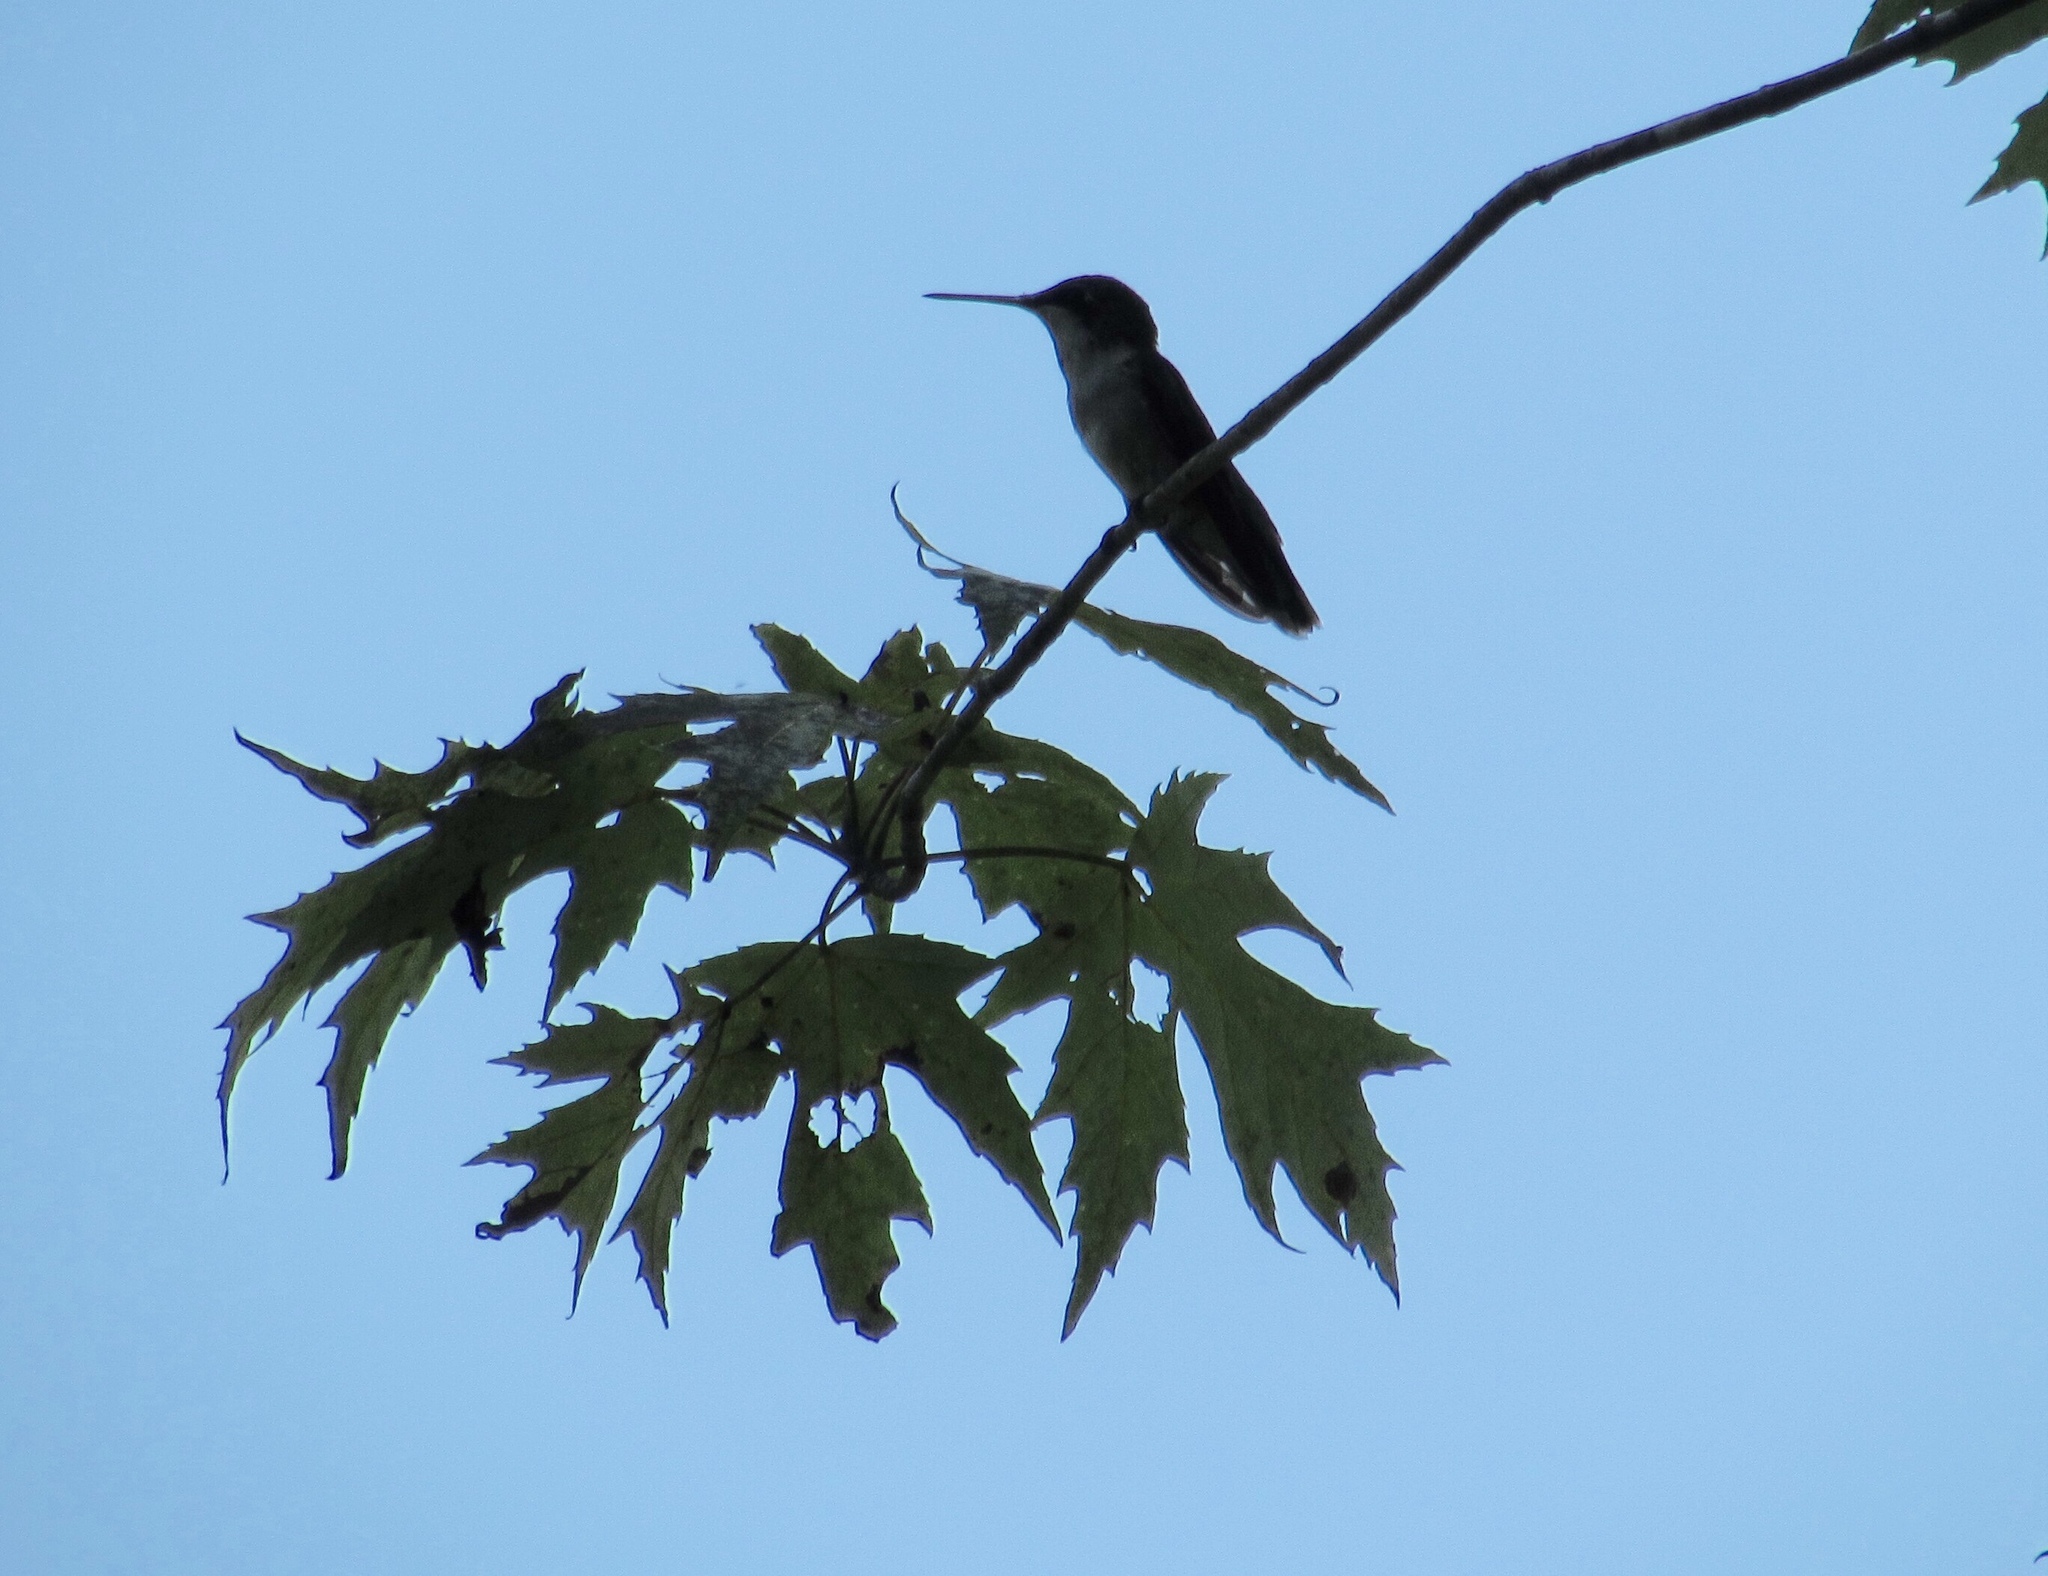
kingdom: Animalia
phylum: Chordata
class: Aves
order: Apodiformes
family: Trochilidae
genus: Archilochus
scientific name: Archilochus colubris
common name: Ruby-throated hummingbird
